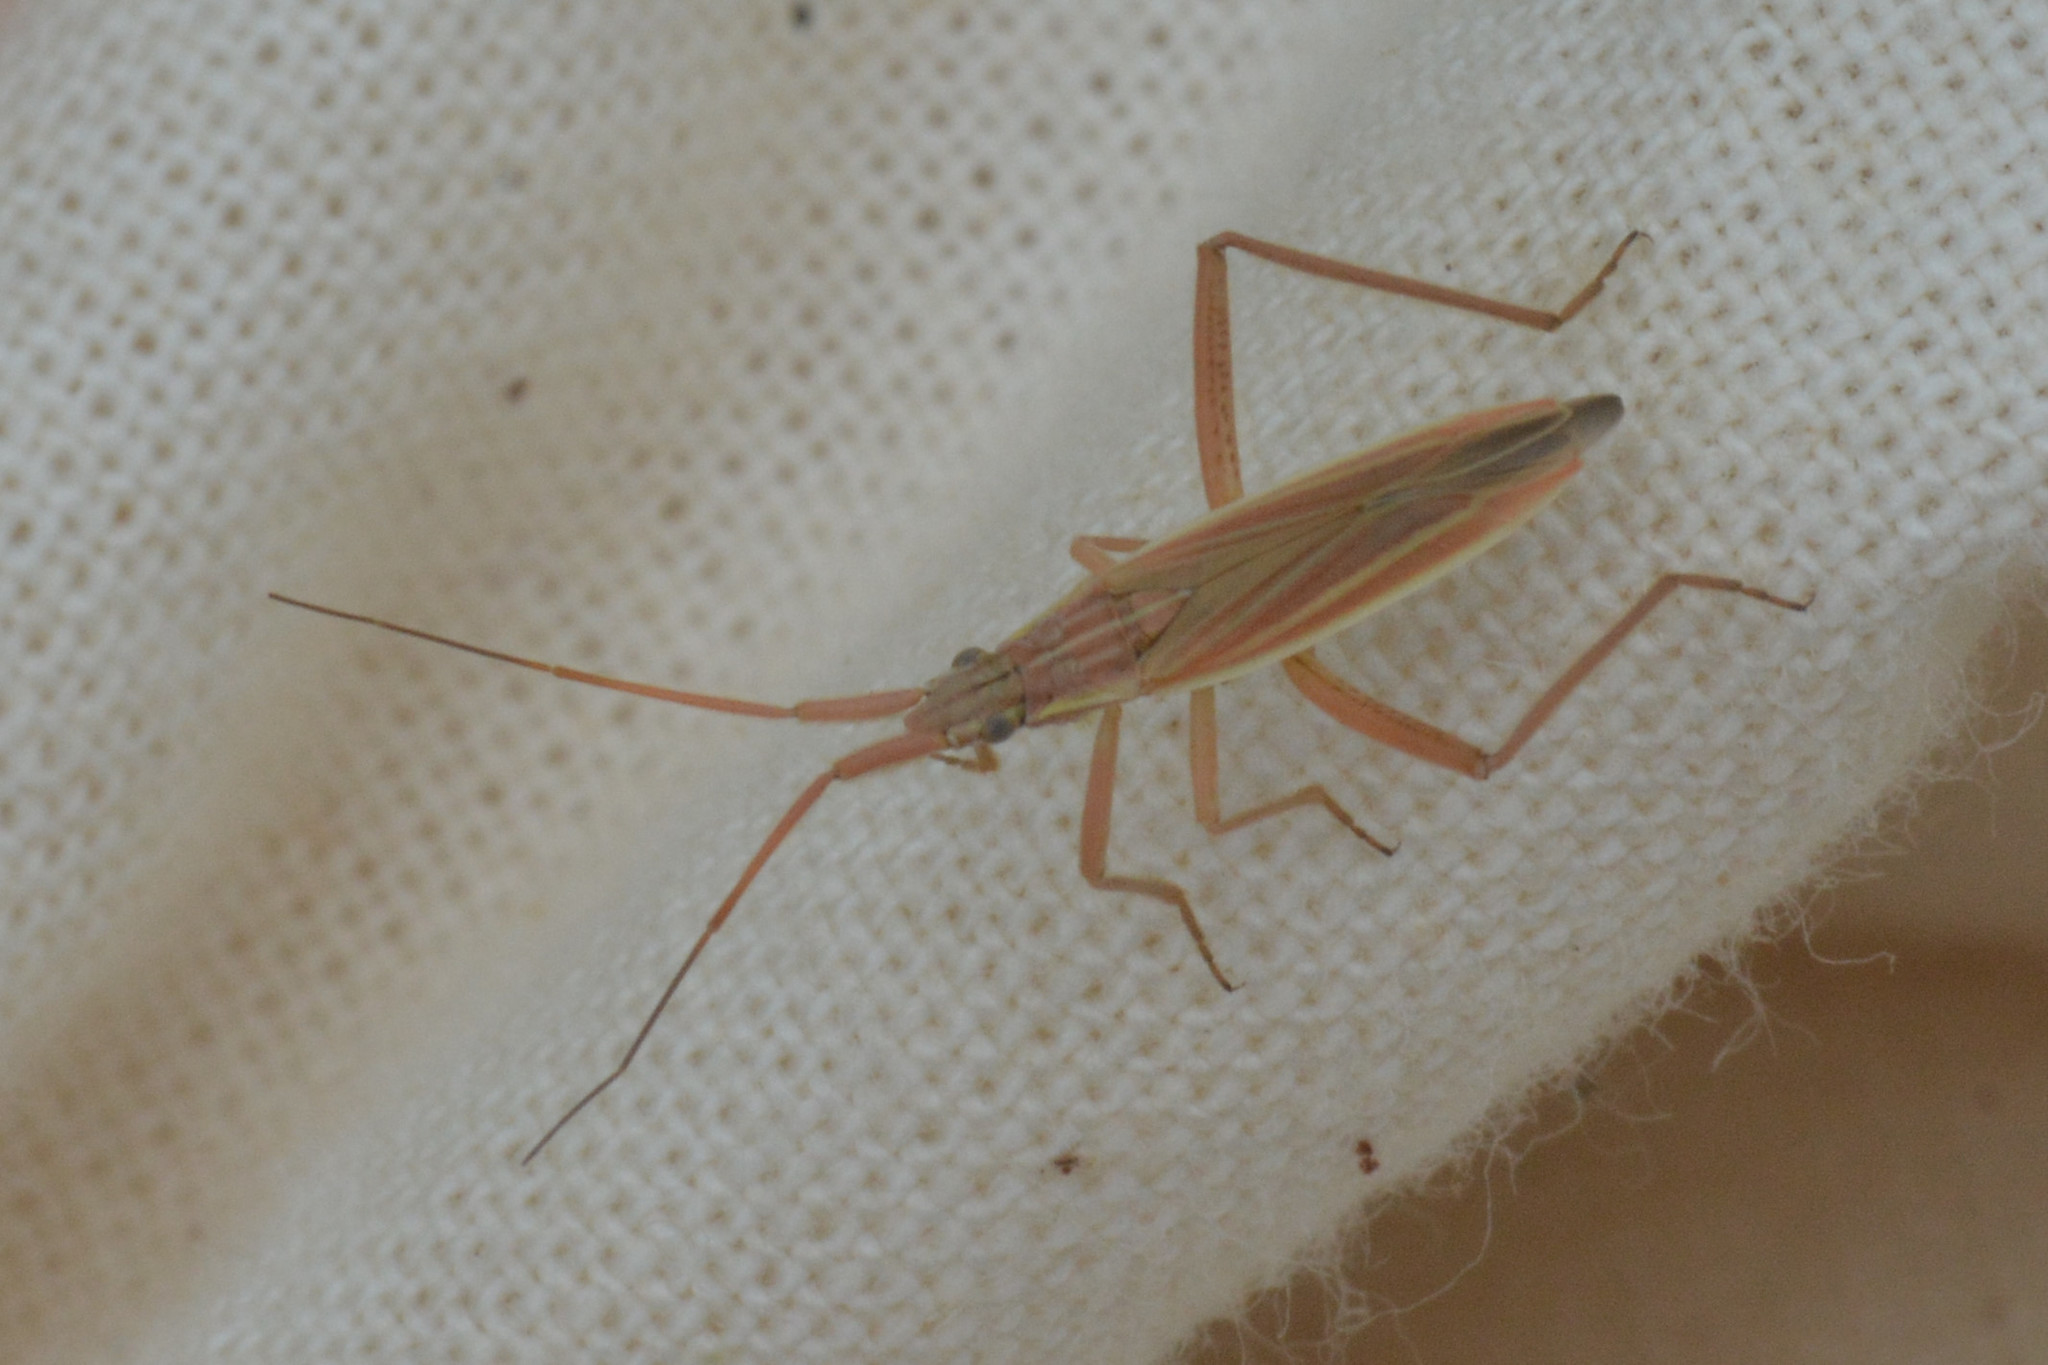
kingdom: Animalia
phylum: Arthropoda
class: Insecta
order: Hemiptera
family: Miridae
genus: Notostira
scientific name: Notostira elongata
